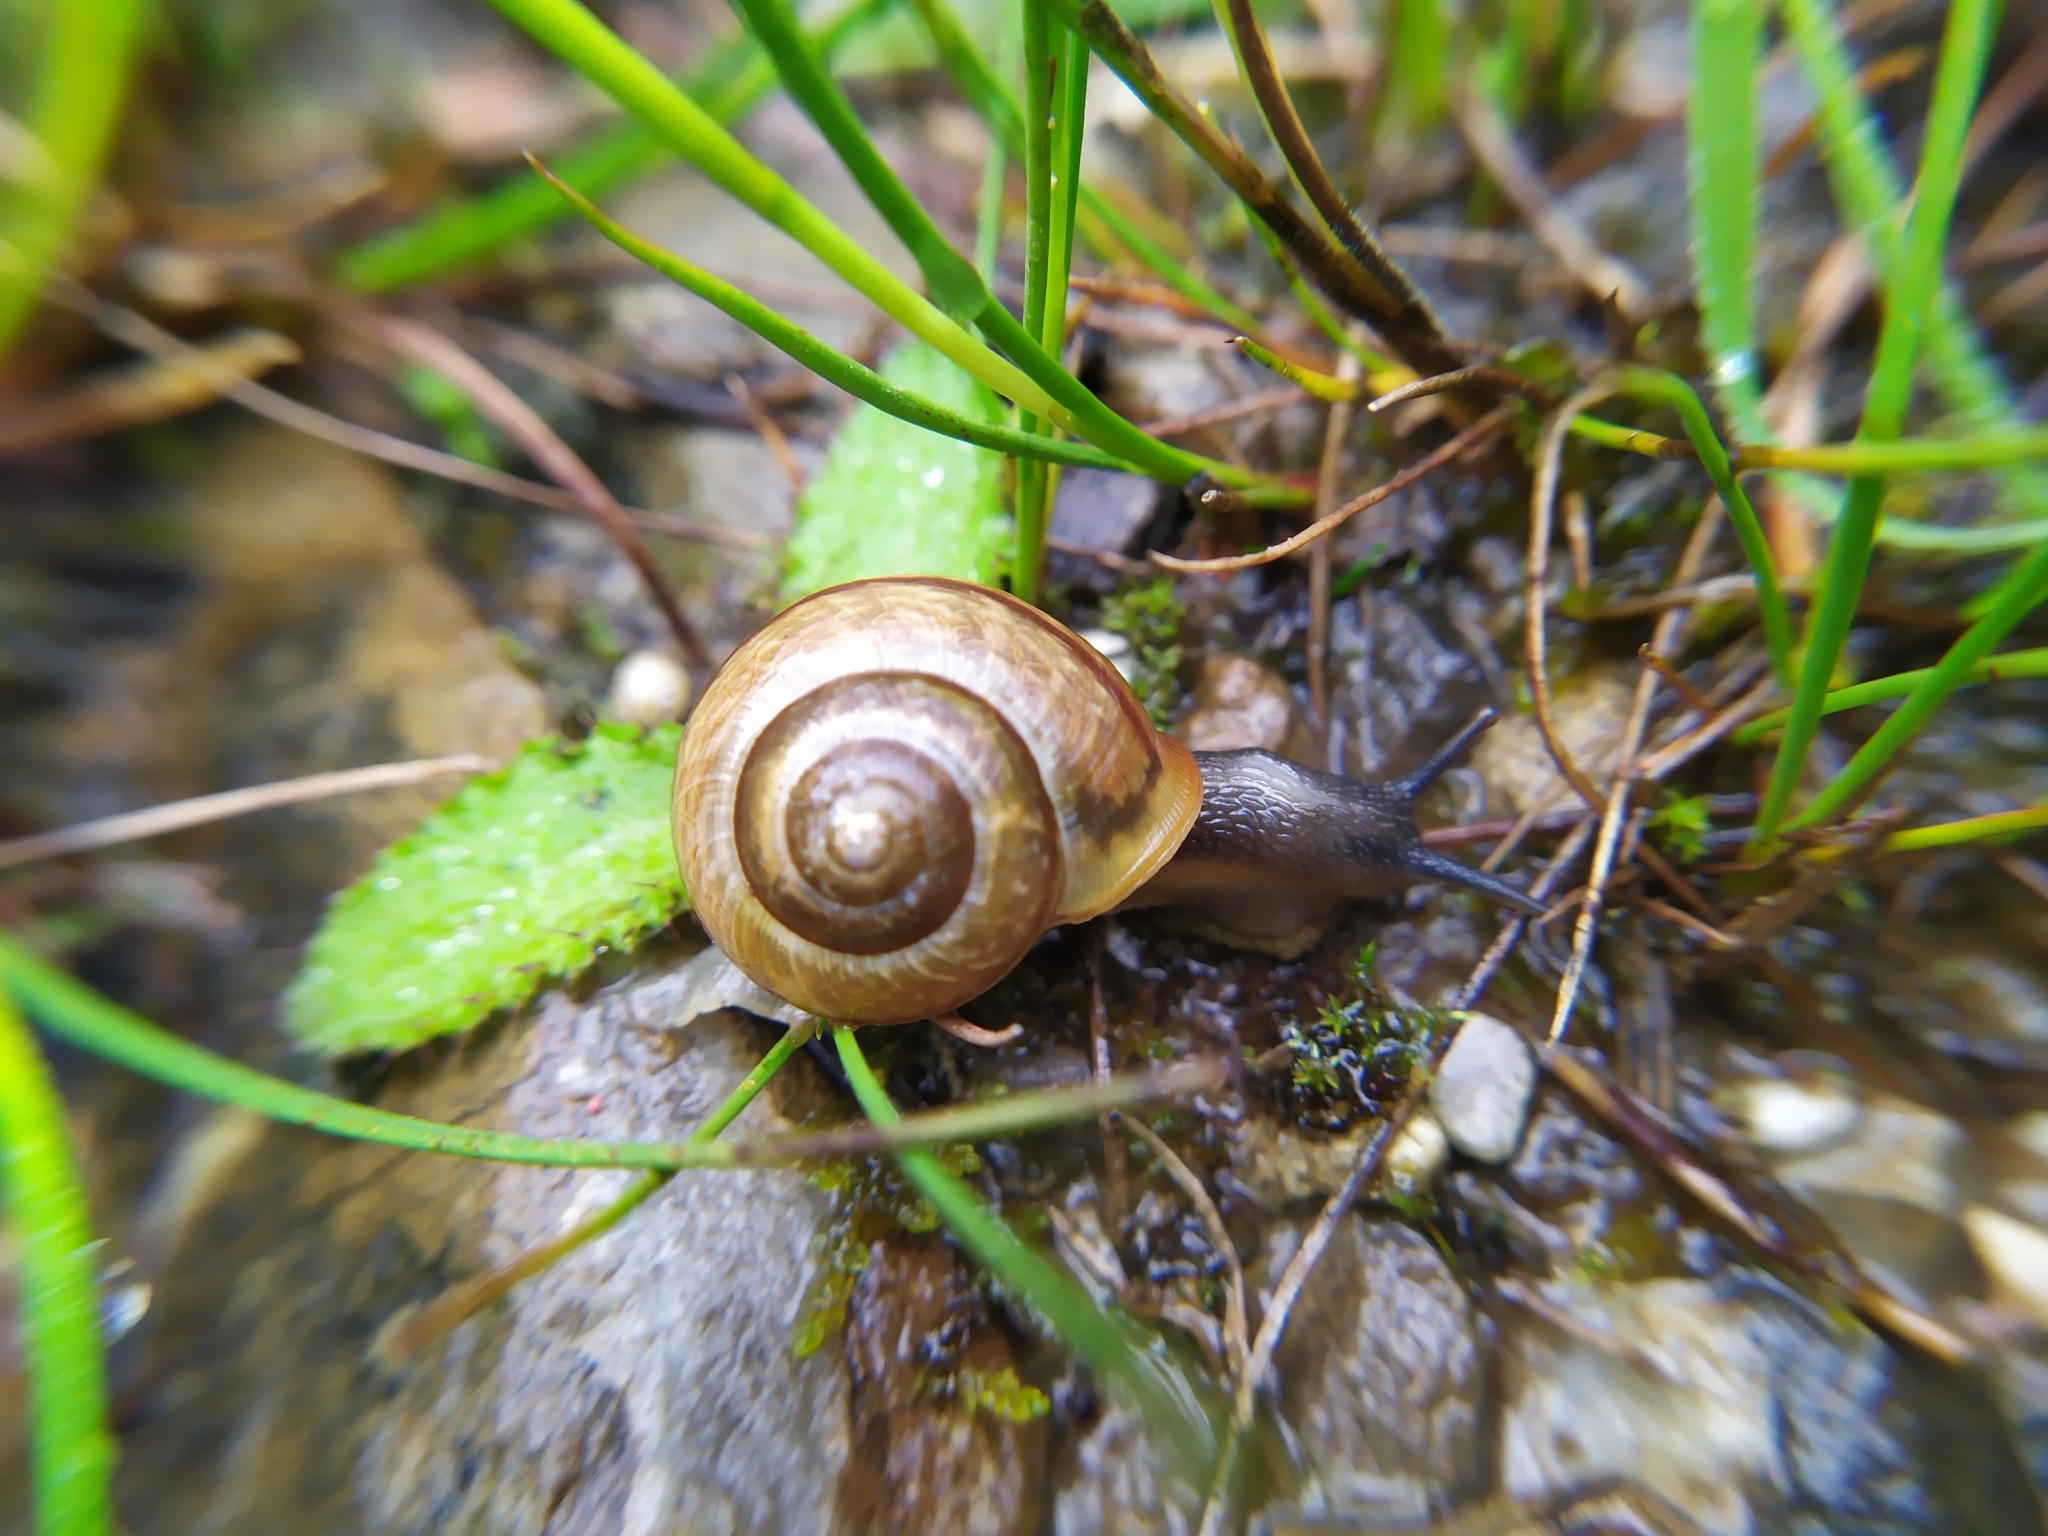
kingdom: Animalia
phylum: Mollusca
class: Gastropoda
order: Stylommatophora
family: Helicidae
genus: Arianta
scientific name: Arianta arbustorum
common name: Copse snail
